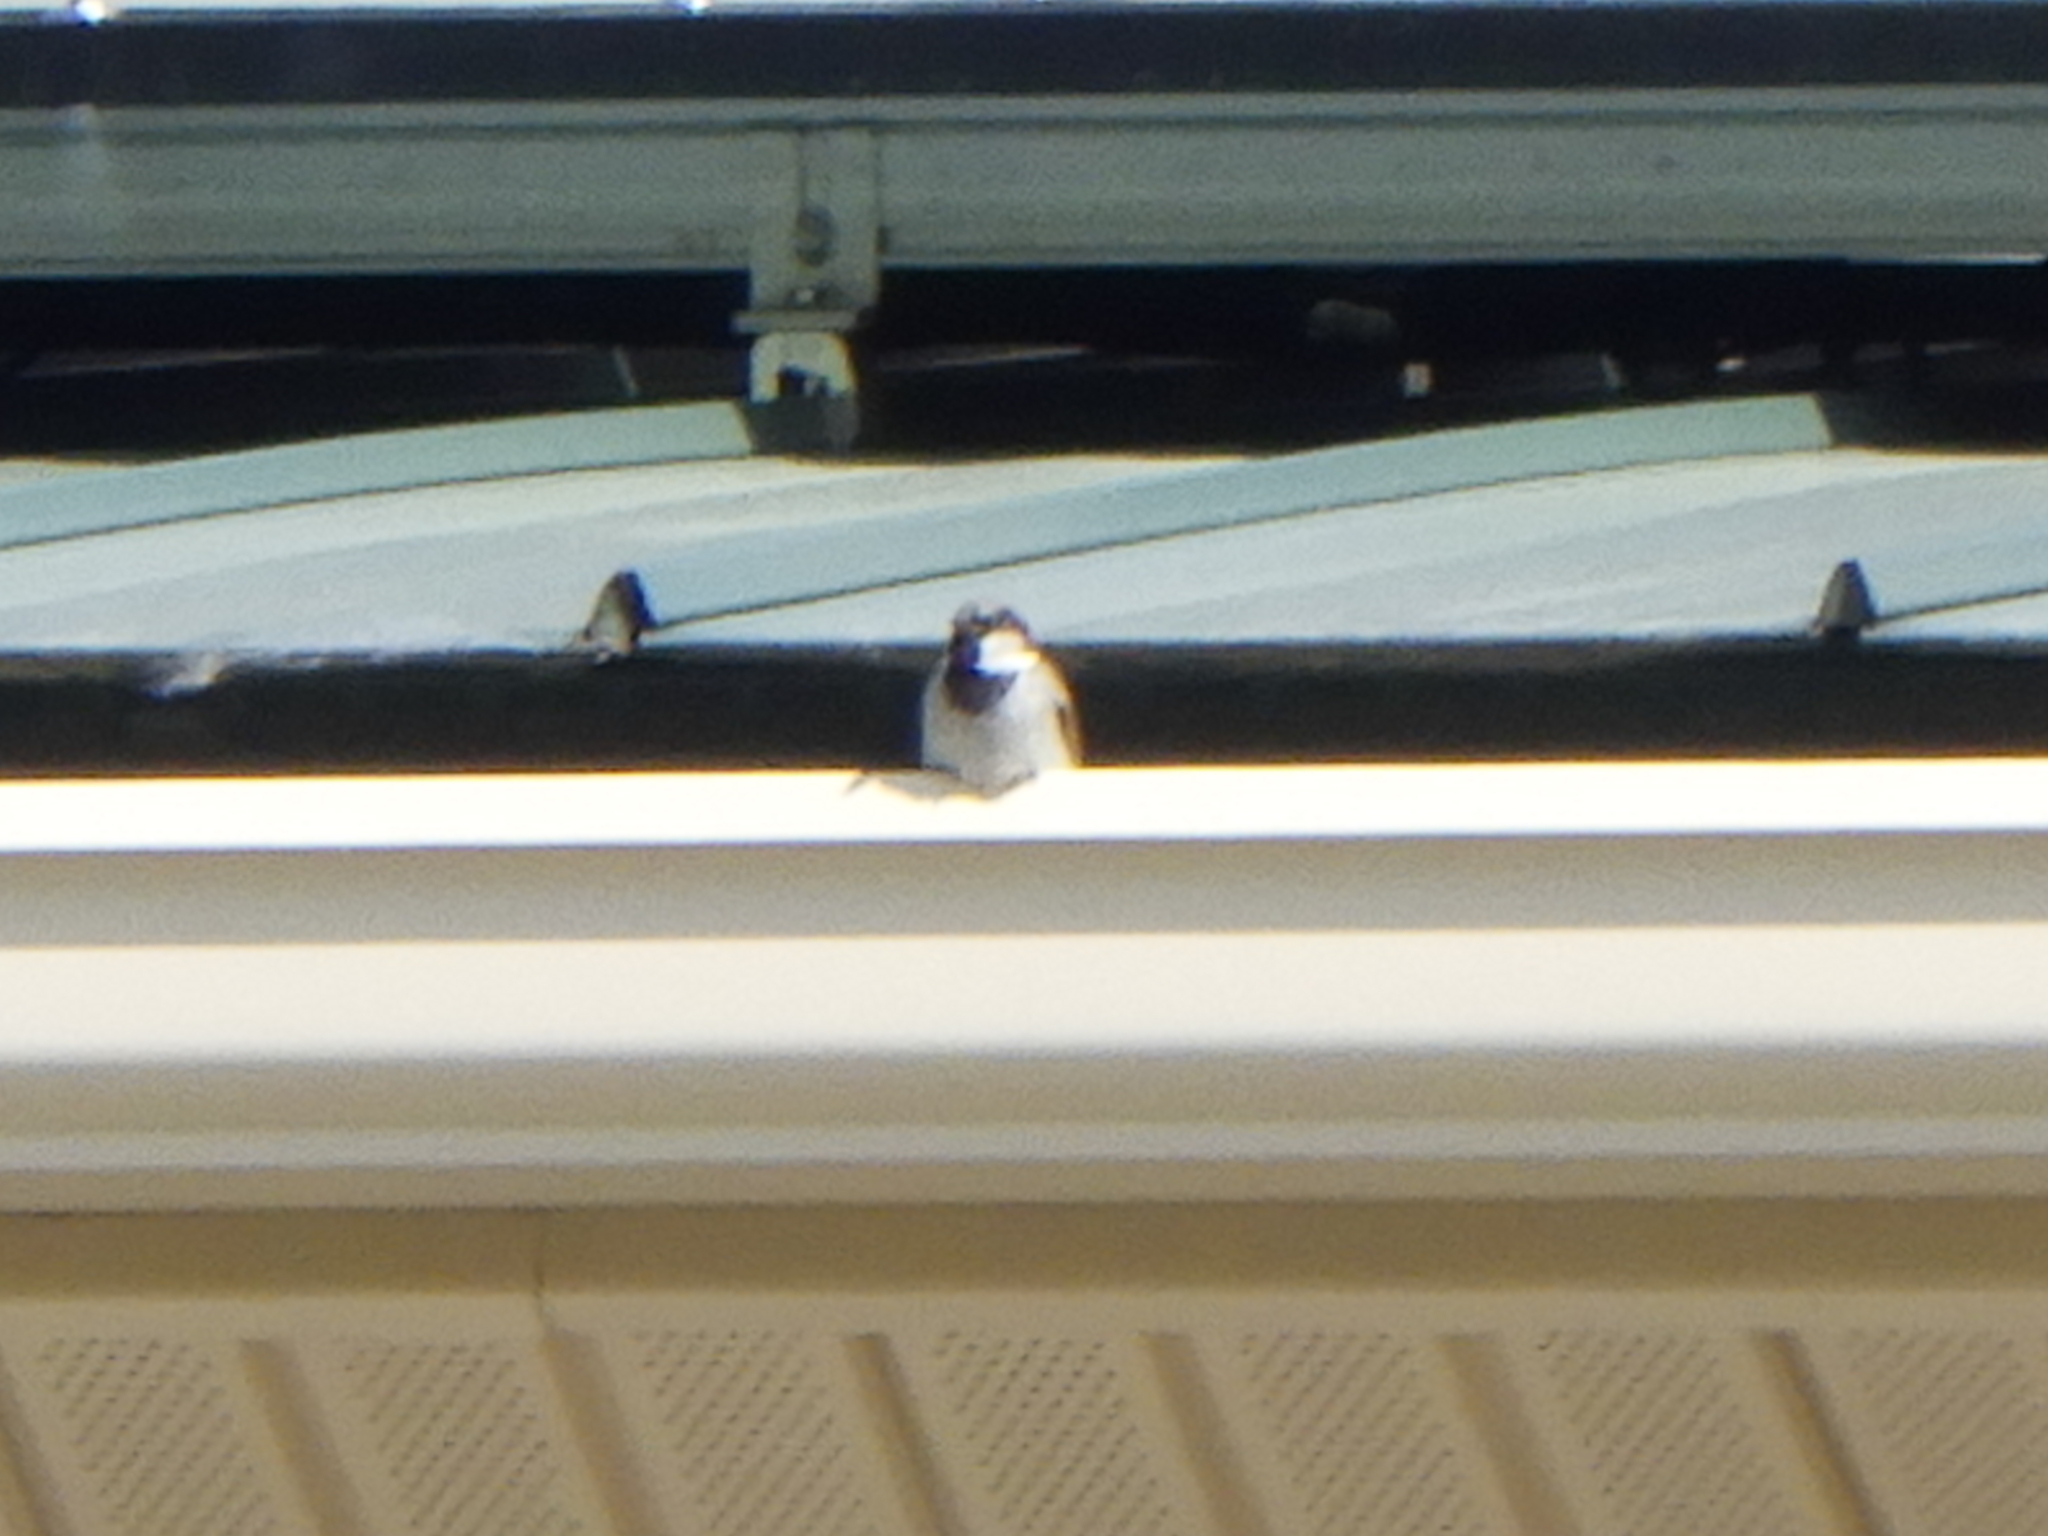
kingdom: Animalia
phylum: Chordata
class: Aves
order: Passeriformes
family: Passeridae
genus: Passer
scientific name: Passer domesticus
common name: House sparrow
